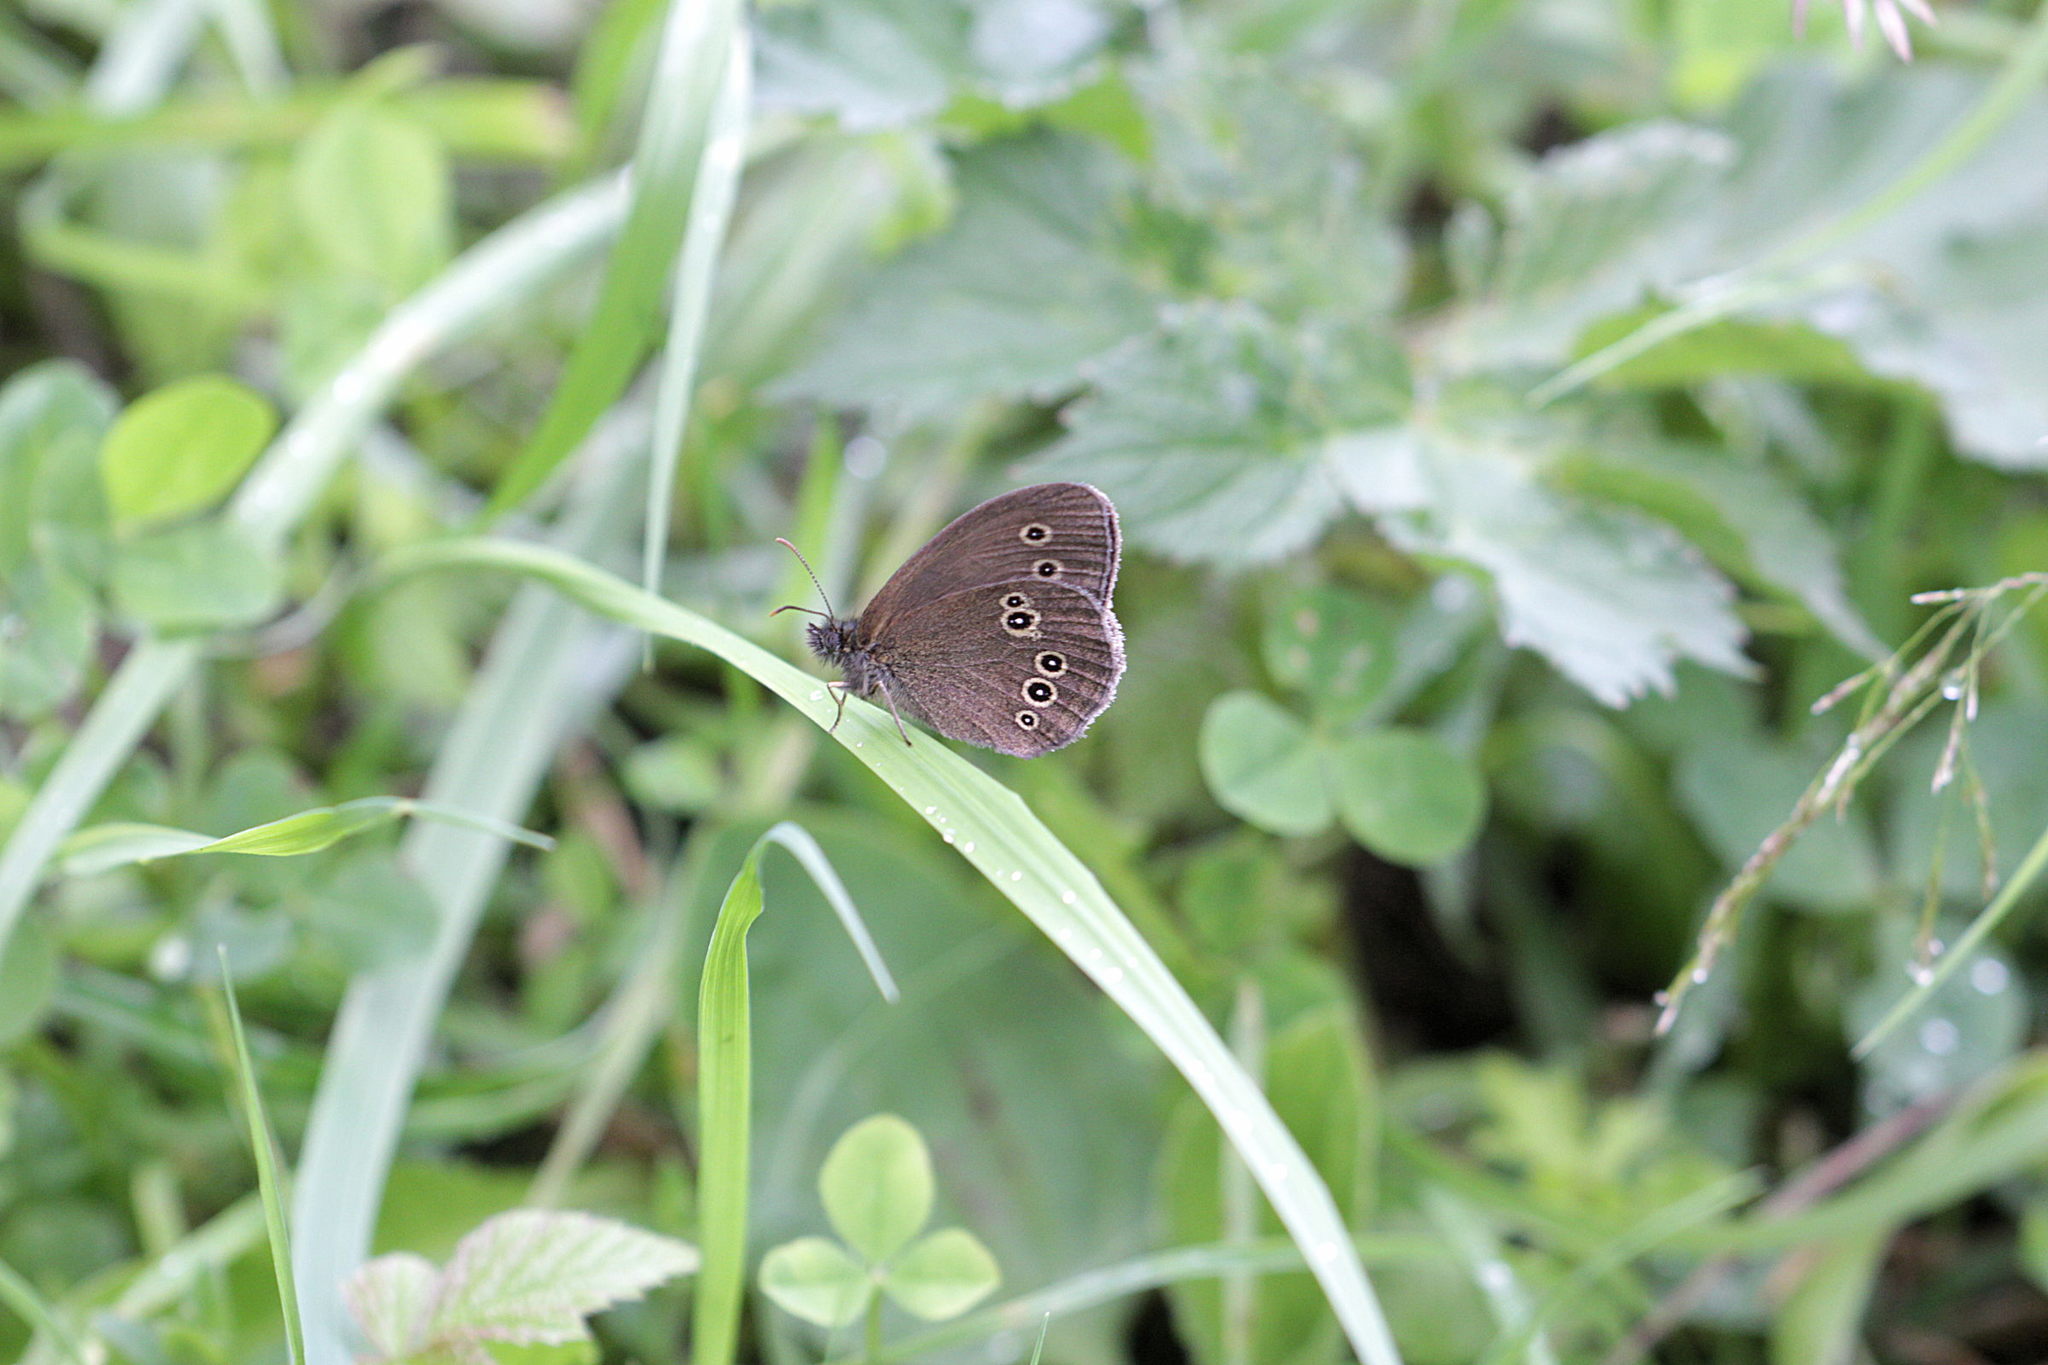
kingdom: Animalia
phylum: Arthropoda
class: Insecta
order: Lepidoptera
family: Nymphalidae
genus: Aphantopus
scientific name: Aphantopus hyperantus
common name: Ringlet
